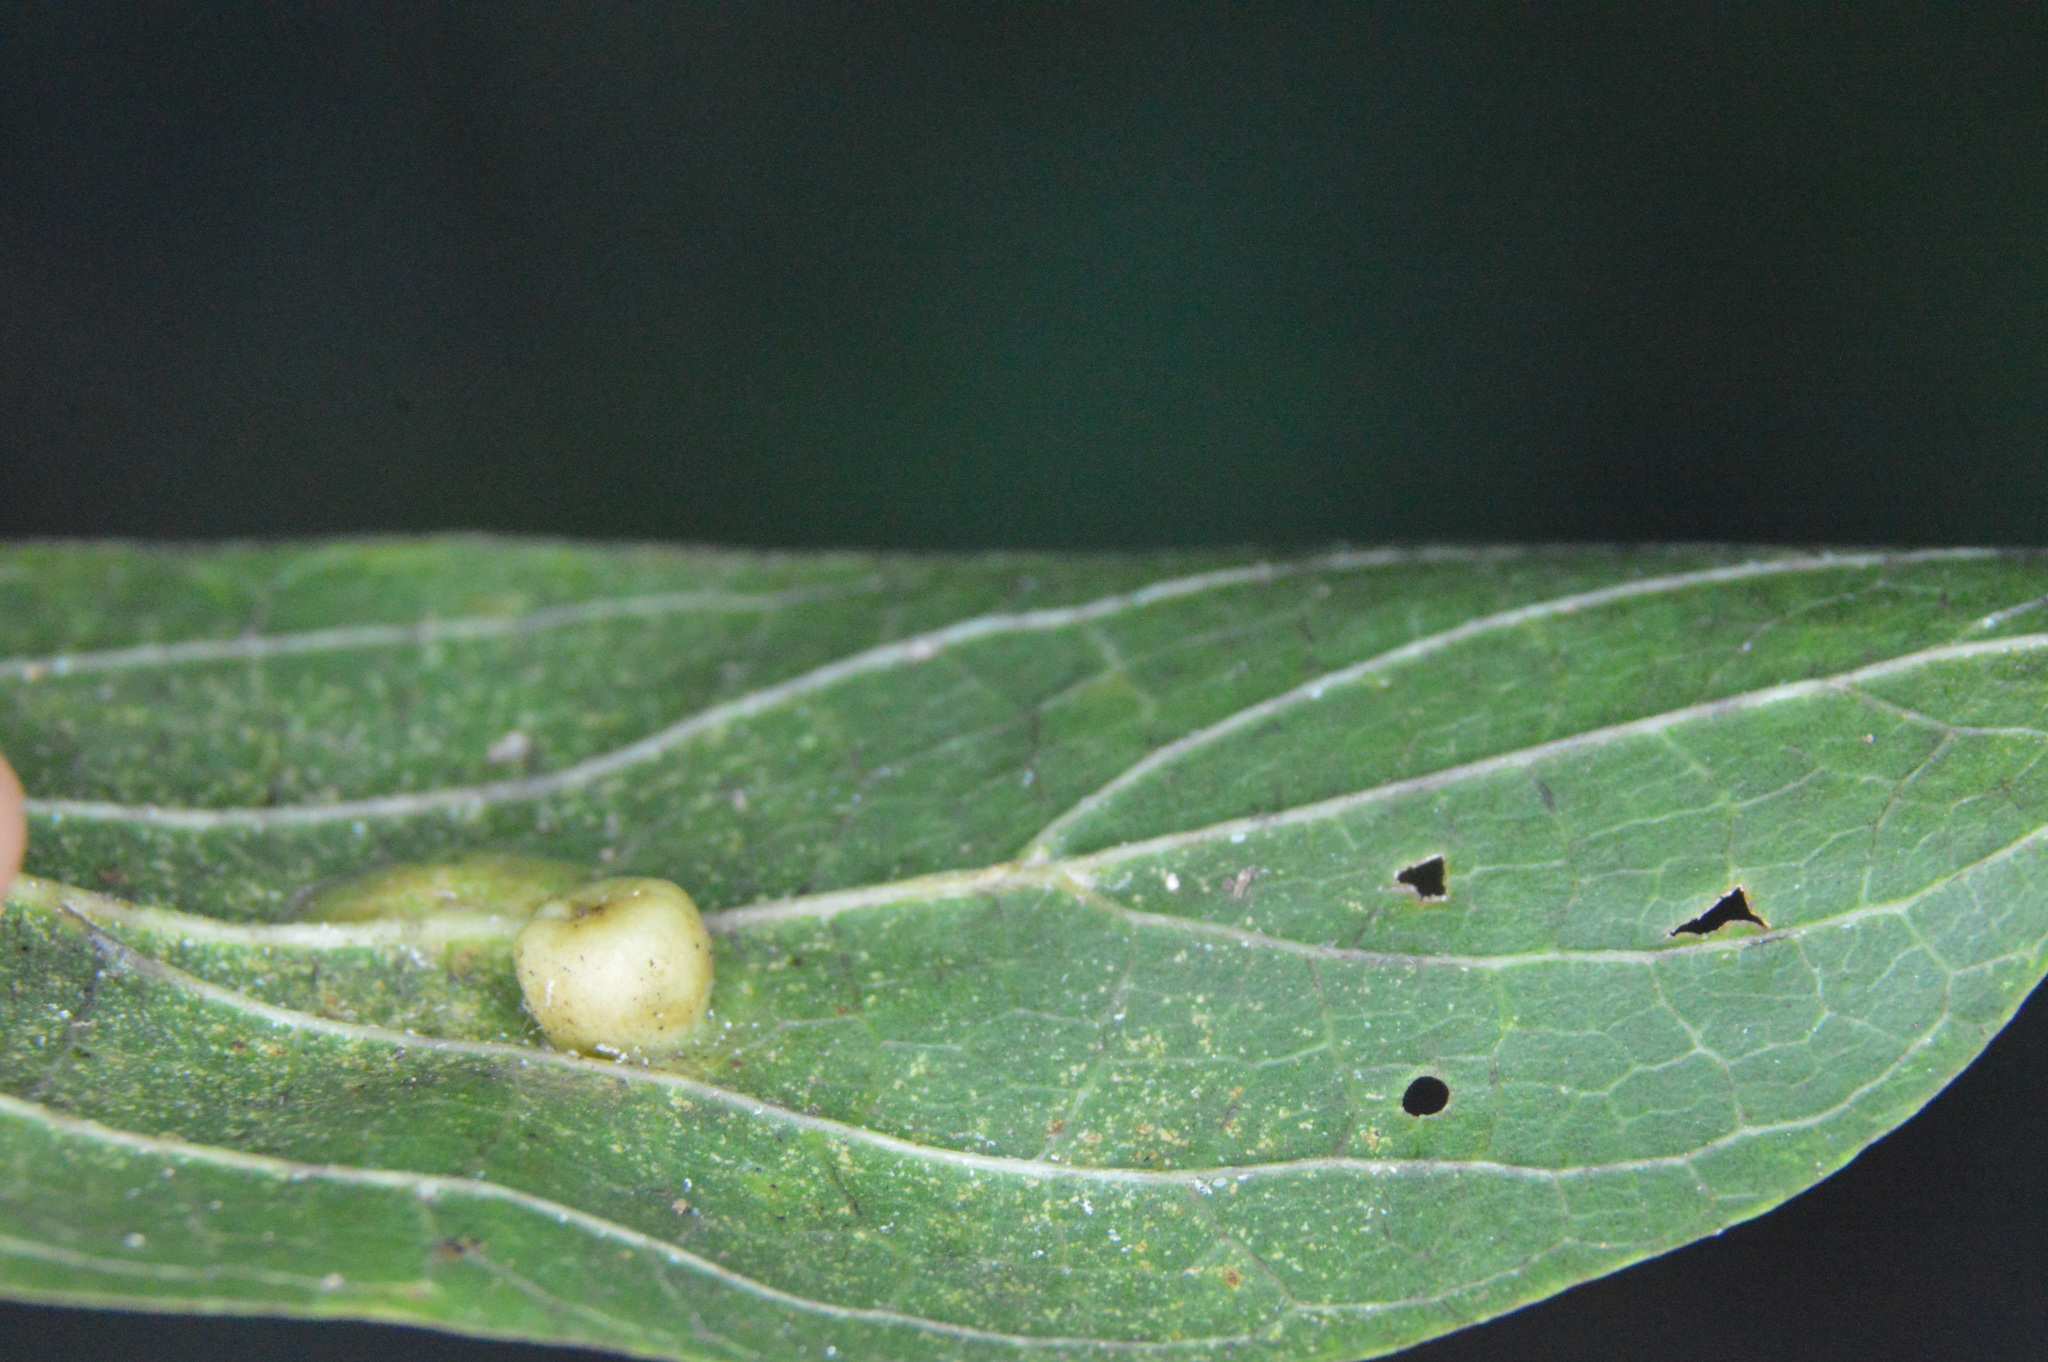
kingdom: Animalia
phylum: Arthropoda
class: Insecta
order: Hemiptera
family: Aphalaridae
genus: Pachypsylla
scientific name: Pachypsylla celtidismamma
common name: Hackberry nipplegall psyllid
